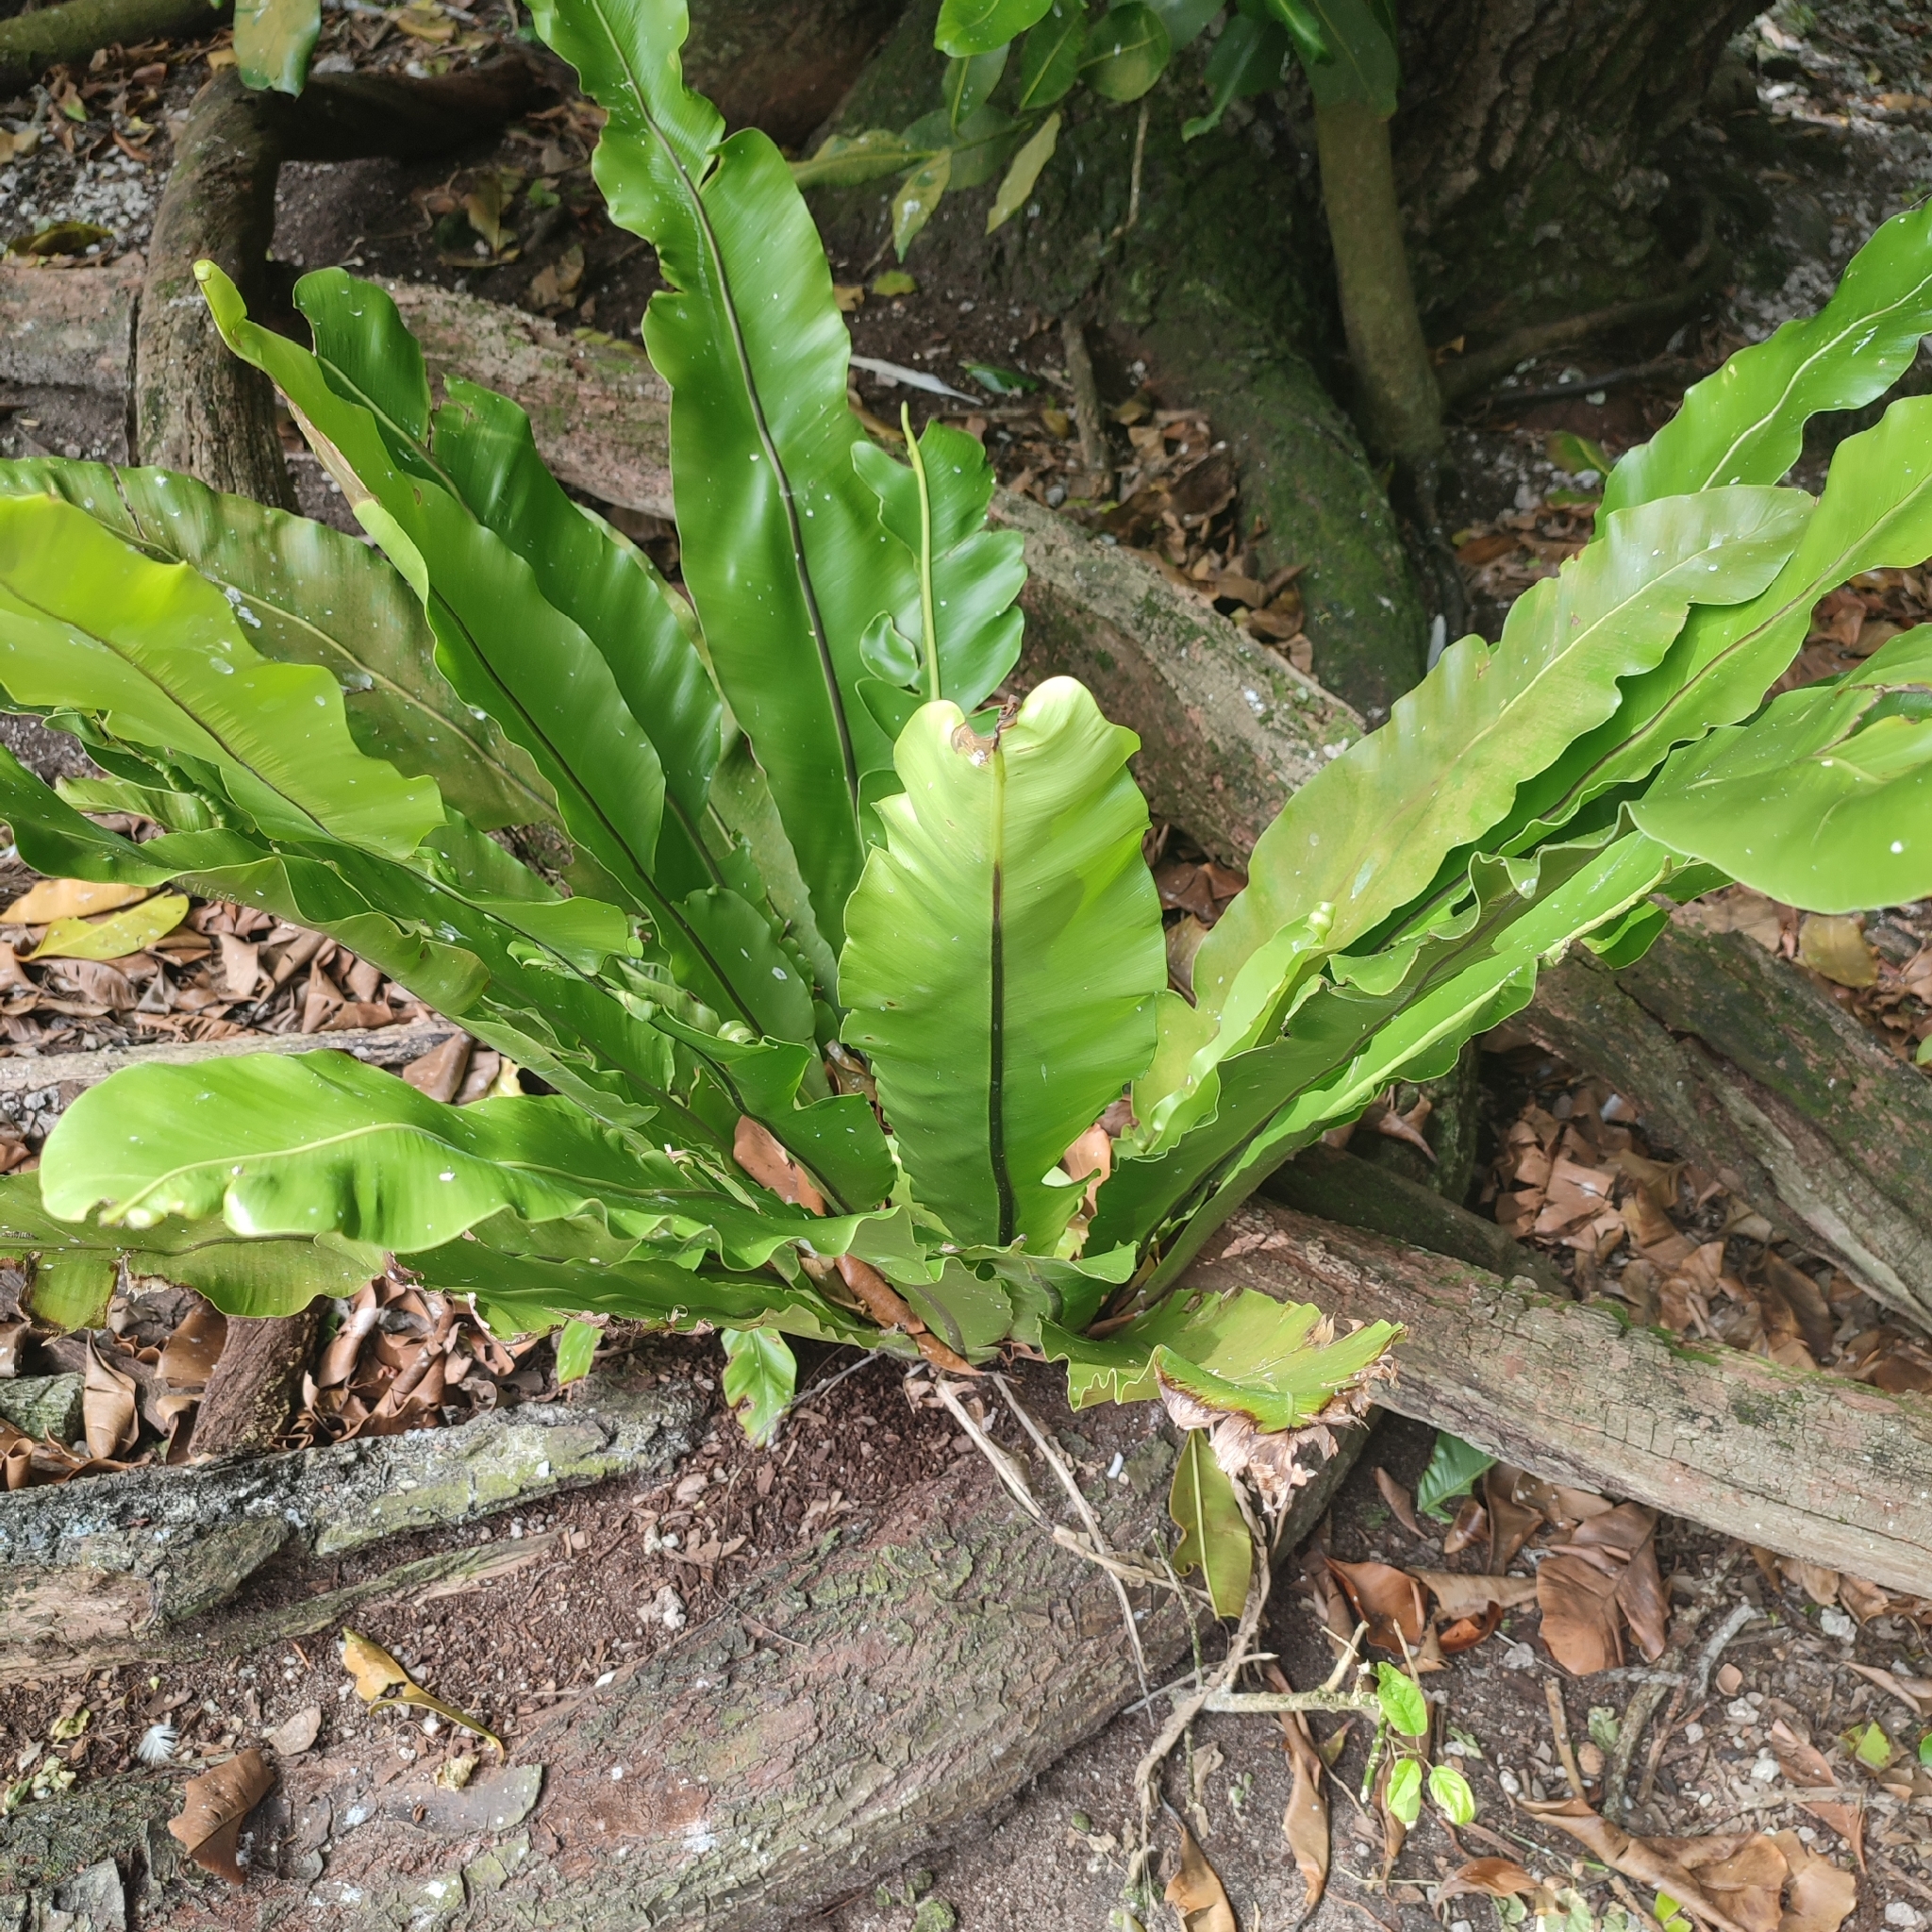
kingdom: Plantae
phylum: Tracheophyta
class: Polypodiopsida
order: Polypodiales
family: Aspleniaceae
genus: Asplenium
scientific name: Asplenium nidus
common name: Bird's-nest fern
